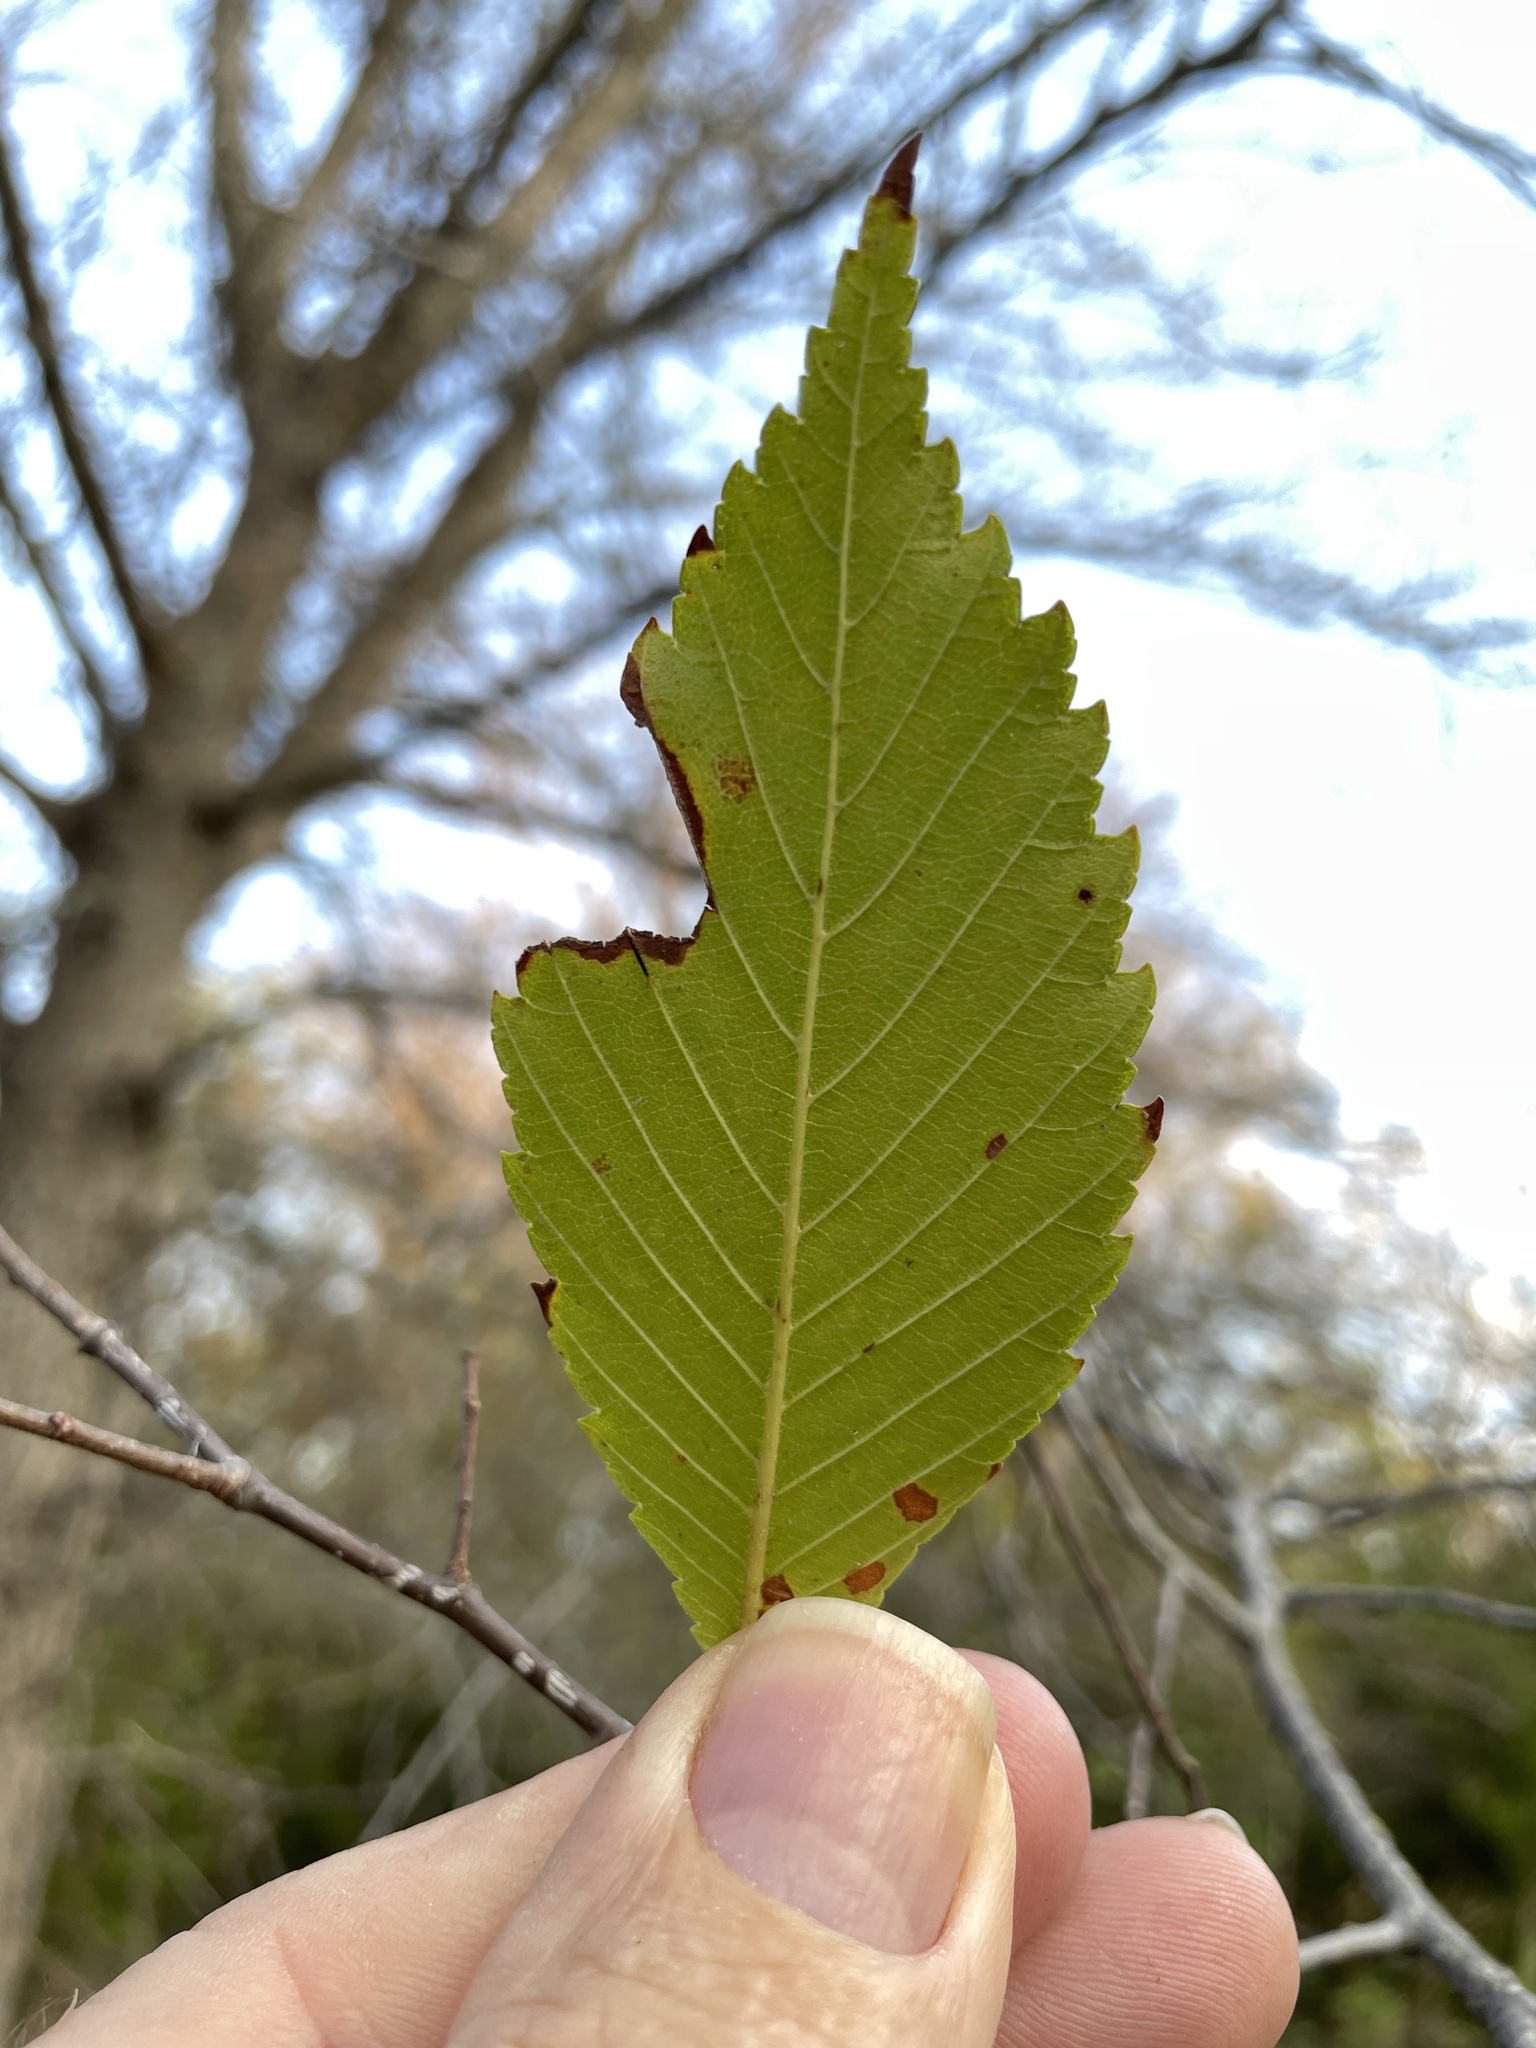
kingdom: Plantae
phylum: Tracheophyta
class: Magnoliopsida
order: Rosales
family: Ulmaceae
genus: Ulmus
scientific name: Ulmus americana
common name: American elm
